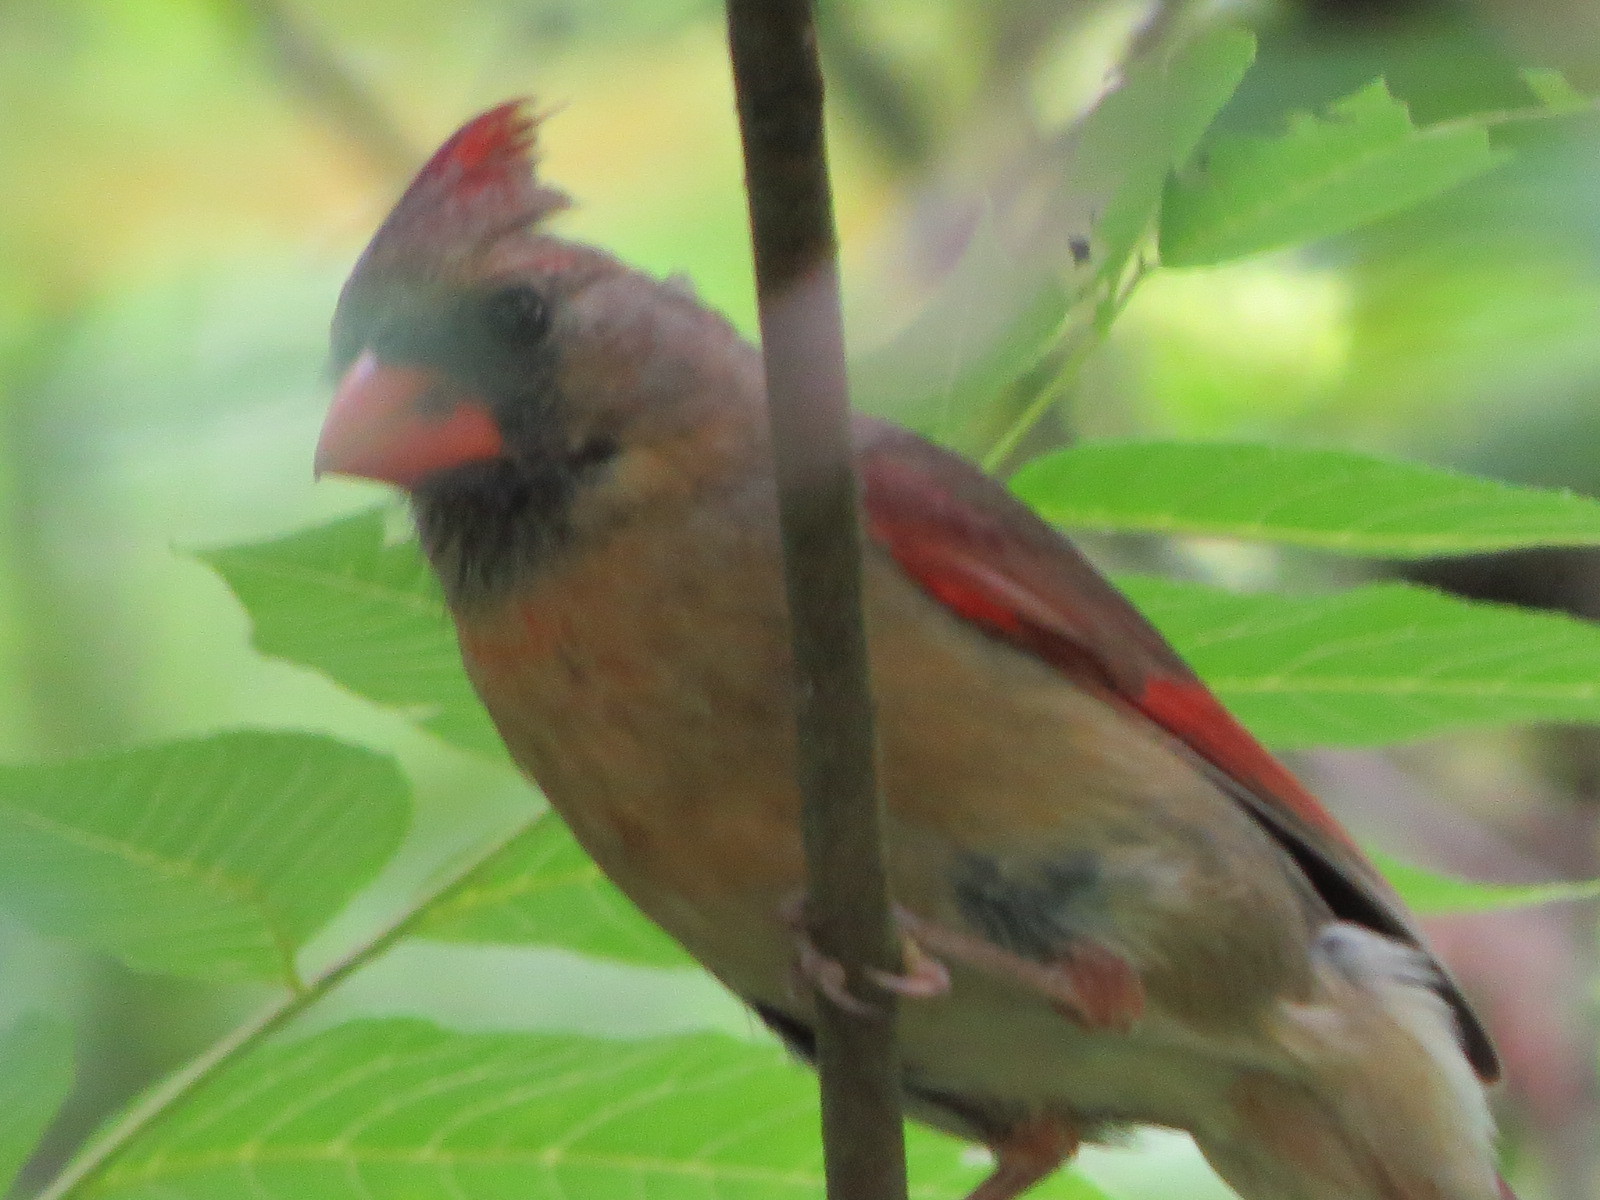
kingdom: Animalia
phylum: Chordata
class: Aves
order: Passeriformes
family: Cardinalidae
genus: Cardinalis
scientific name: Cardinalis cardinalis
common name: Northern cardinal
